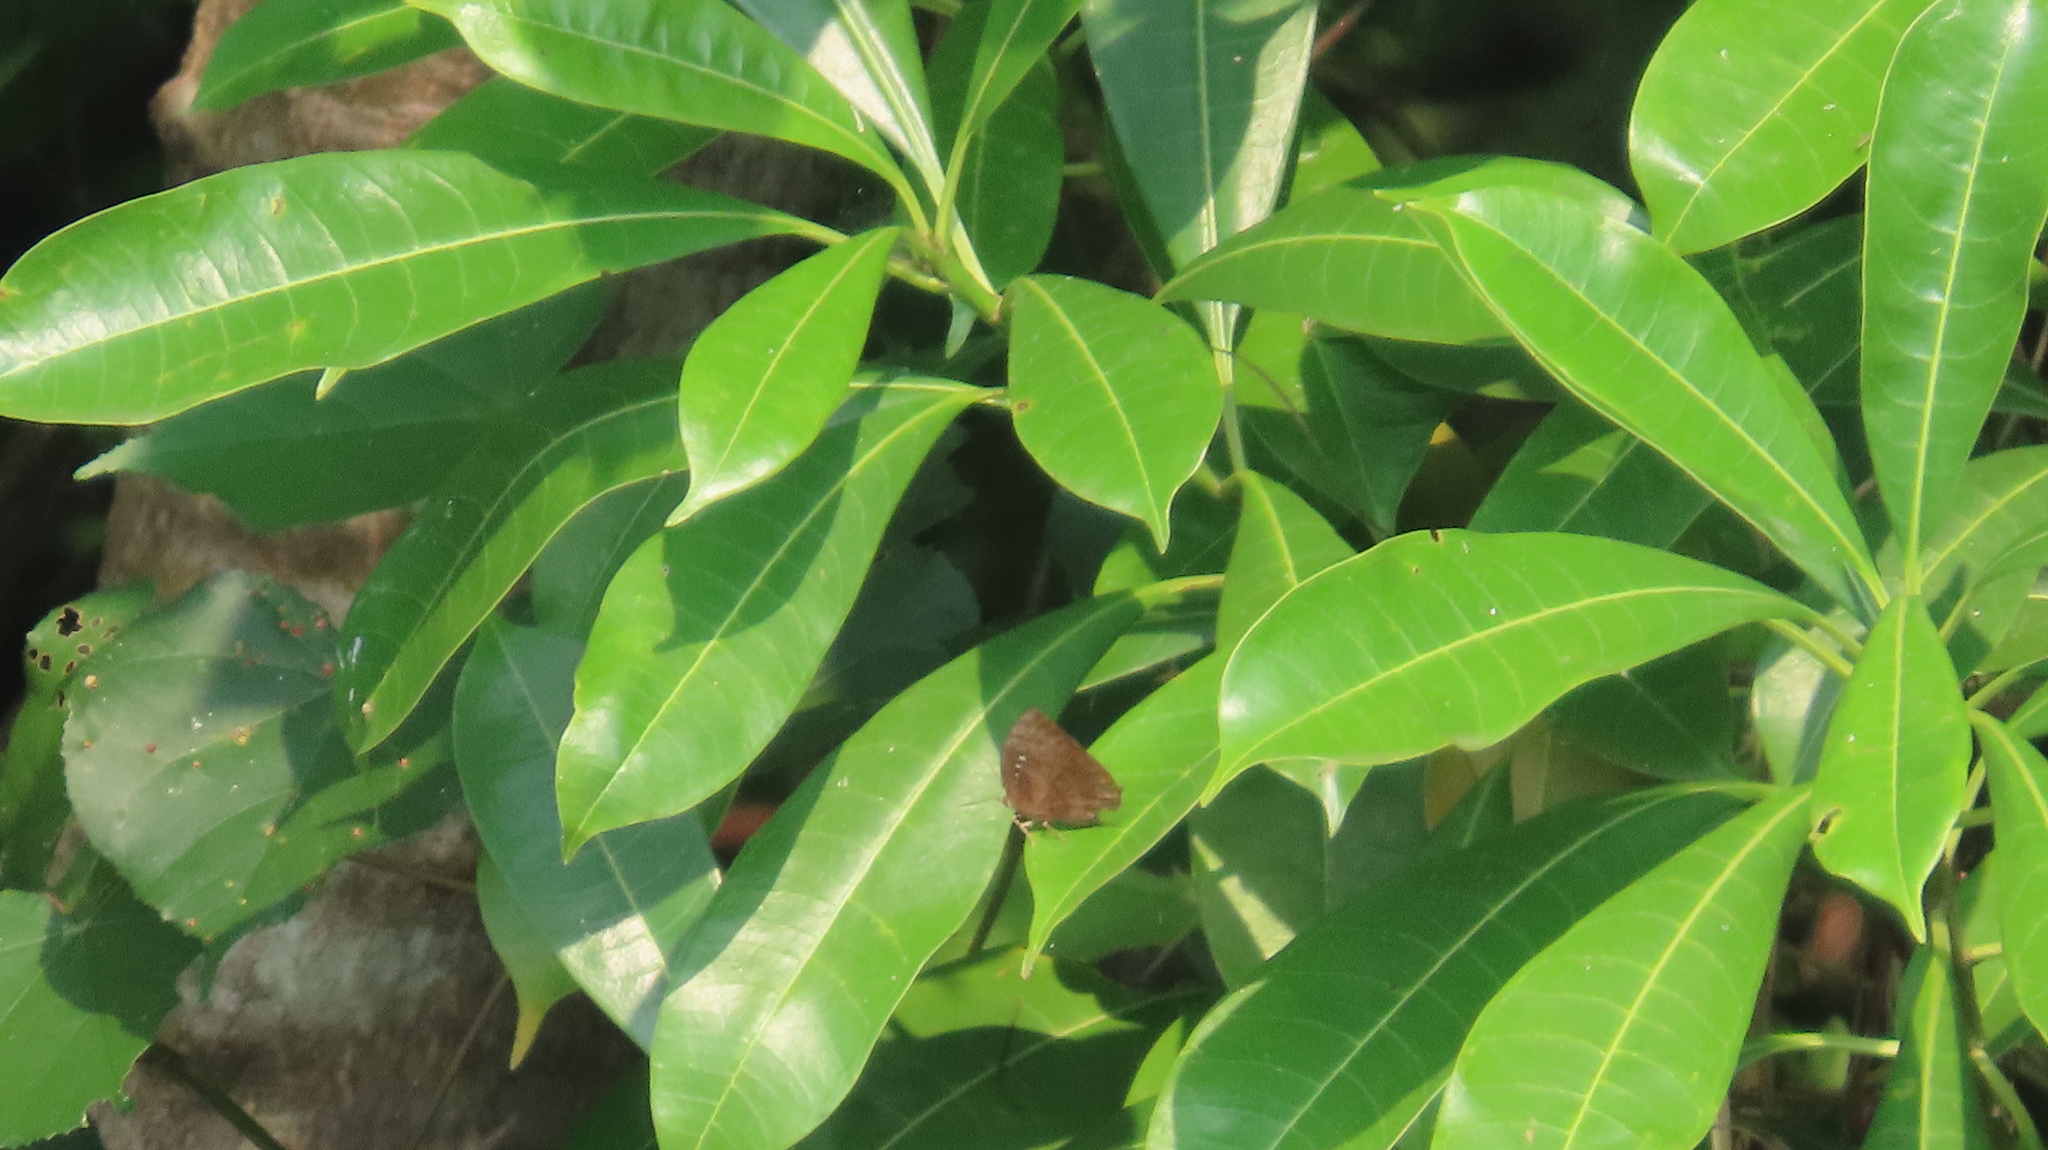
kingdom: Animalia
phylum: Arthropoda
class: Insecta
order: Lepidoptera
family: Lycaenidae
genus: Arhopala
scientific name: Arhopala centaurus
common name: Dull oak-blue
